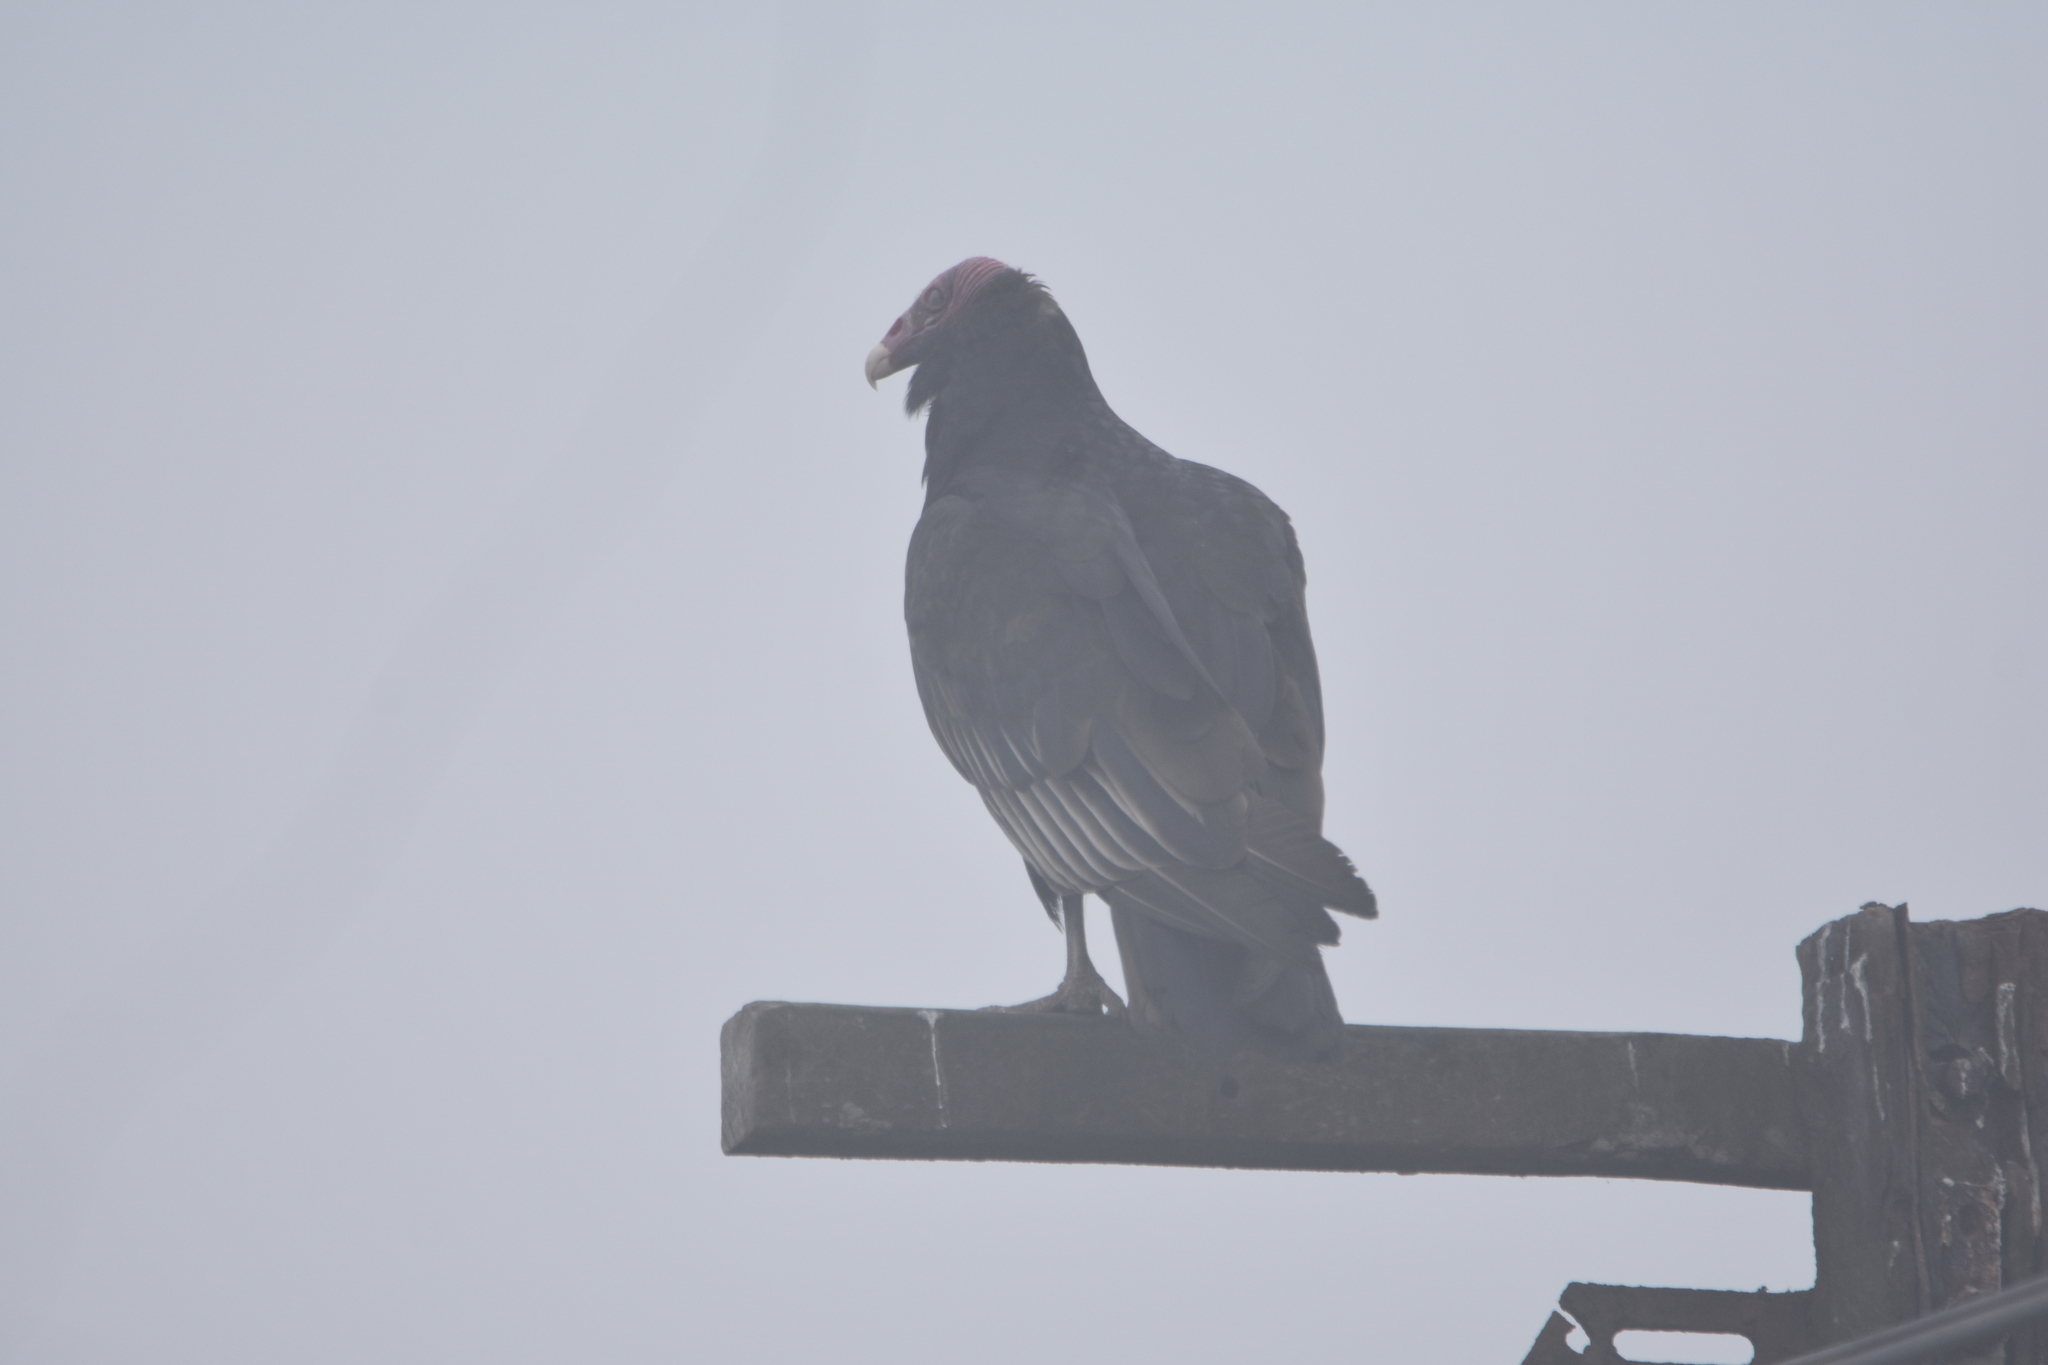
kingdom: Animalia
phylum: Chordata
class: Aves
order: Accipitriformes
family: Cathartidae
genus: Cathartes
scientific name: Cathartes aura
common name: Turkey vulture
